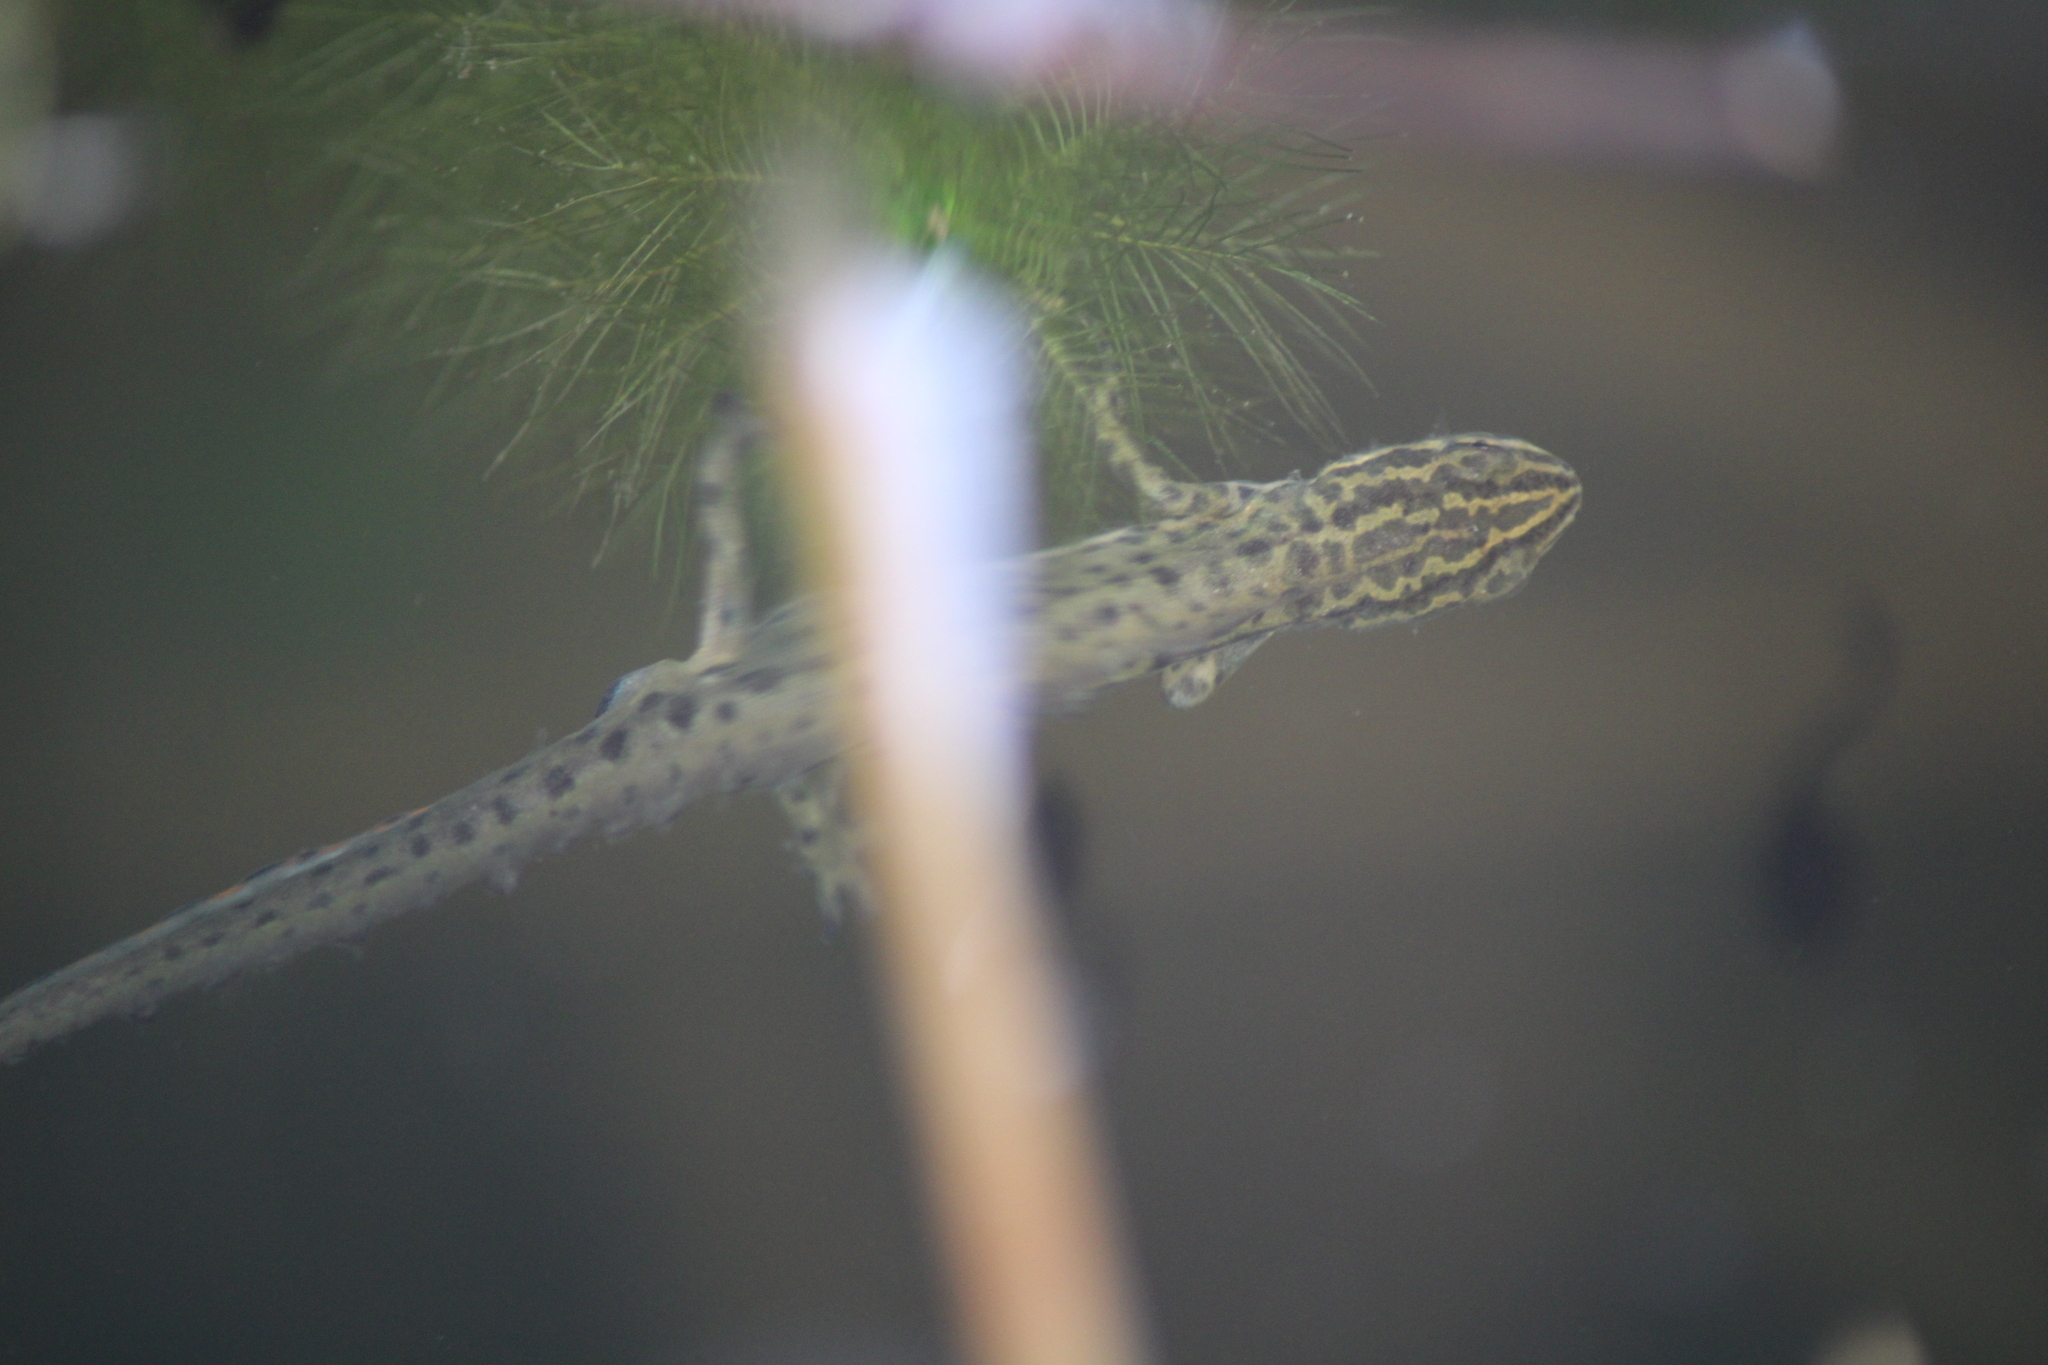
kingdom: Animalia
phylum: Chordata
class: Amphibia
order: Caudata
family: Salamandridae
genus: Lissotriton
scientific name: Lissotriton vulgaris
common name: Smooth newt
